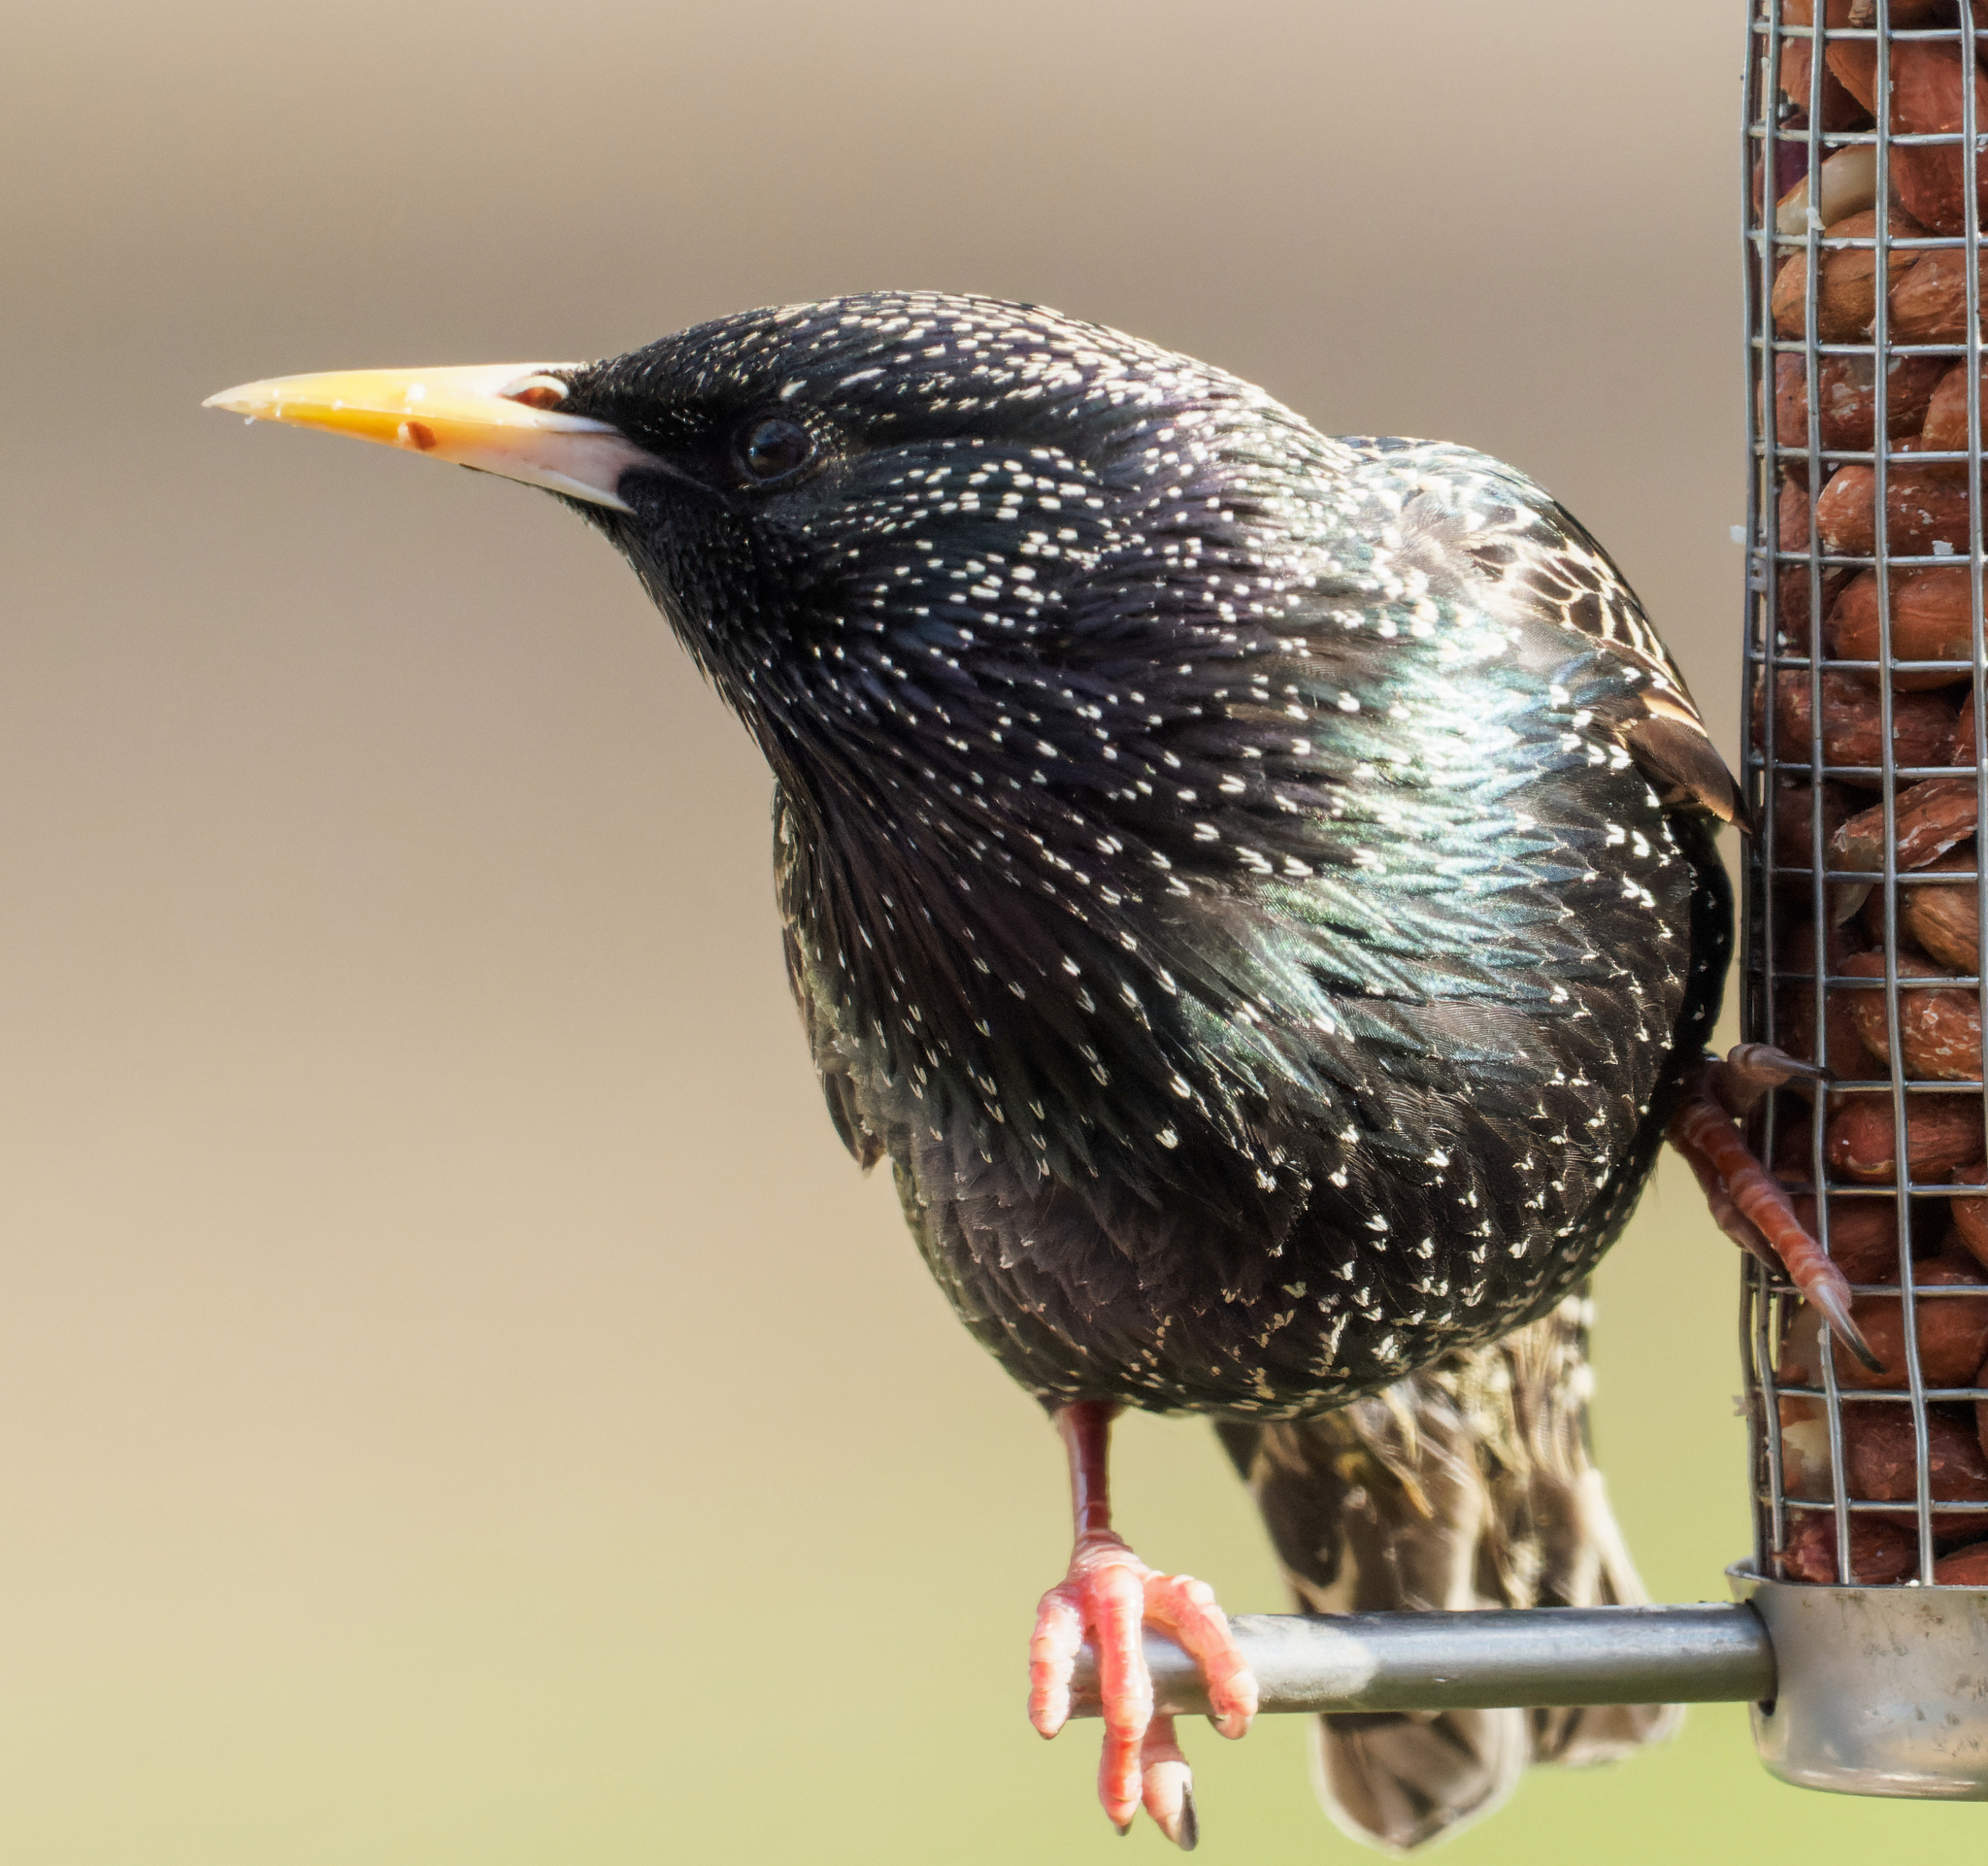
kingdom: Animalia
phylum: Chordata
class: Aves
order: Passeriformes
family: Sturnidae
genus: Sturnus
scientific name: Sturnus vulgaris
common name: Common starling
